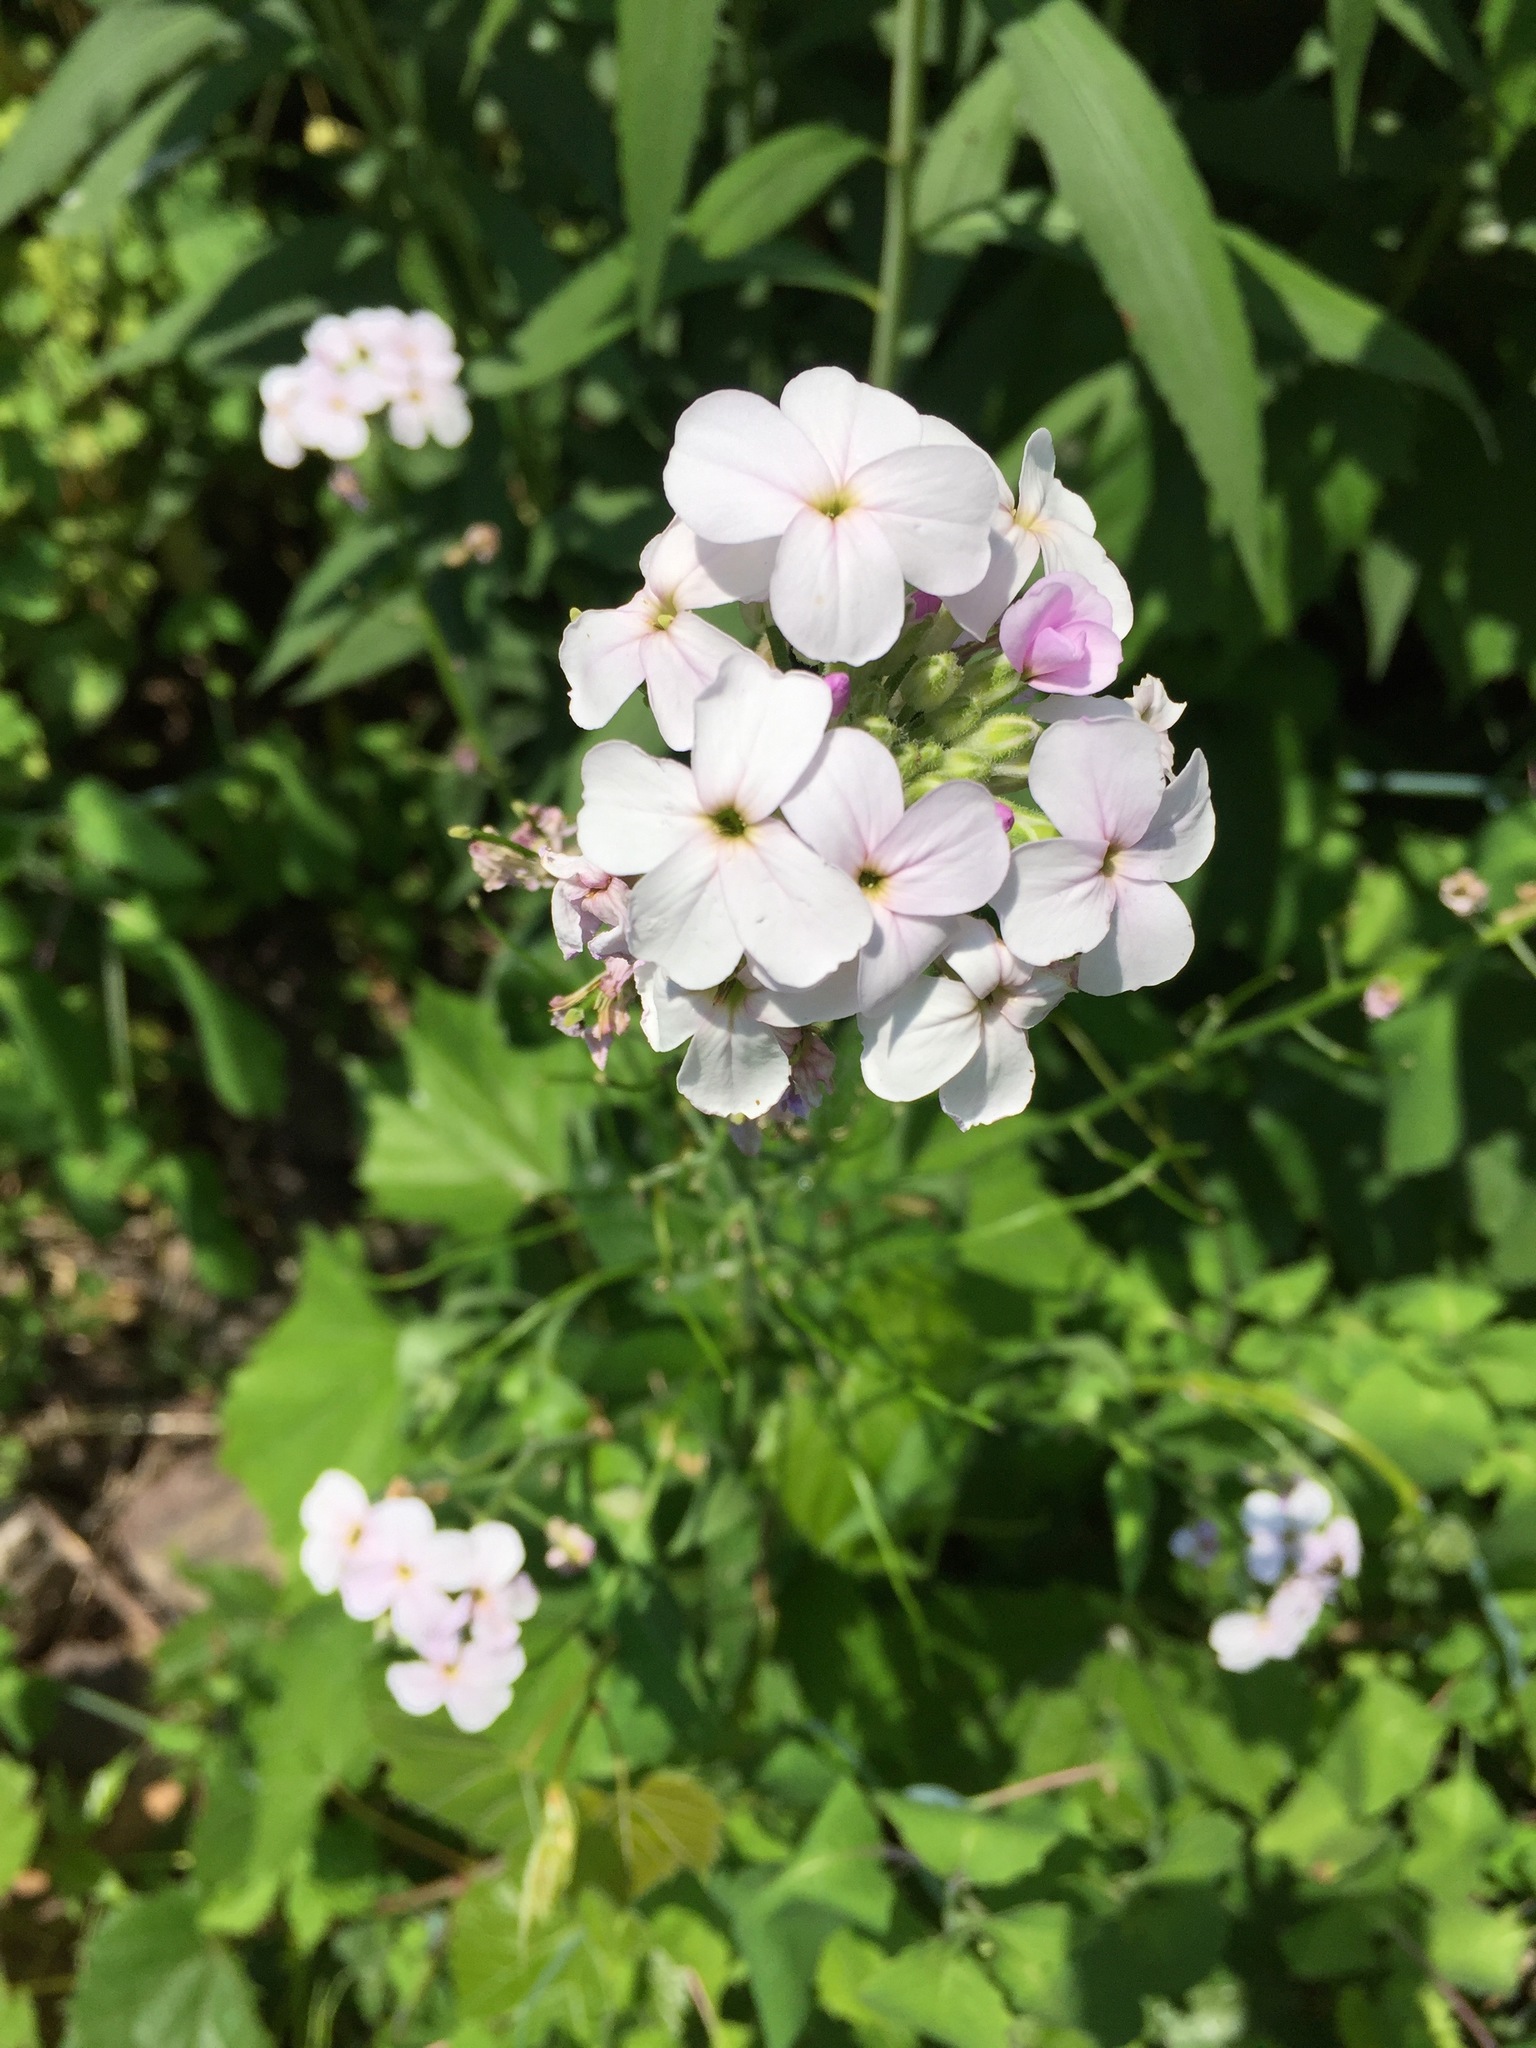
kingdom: Plantae
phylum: Tracheophyta
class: Magnoliopsida
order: Brassicales
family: Brassicaceae
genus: Hesperis
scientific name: Hesperis matronalis
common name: Dame's-violet
